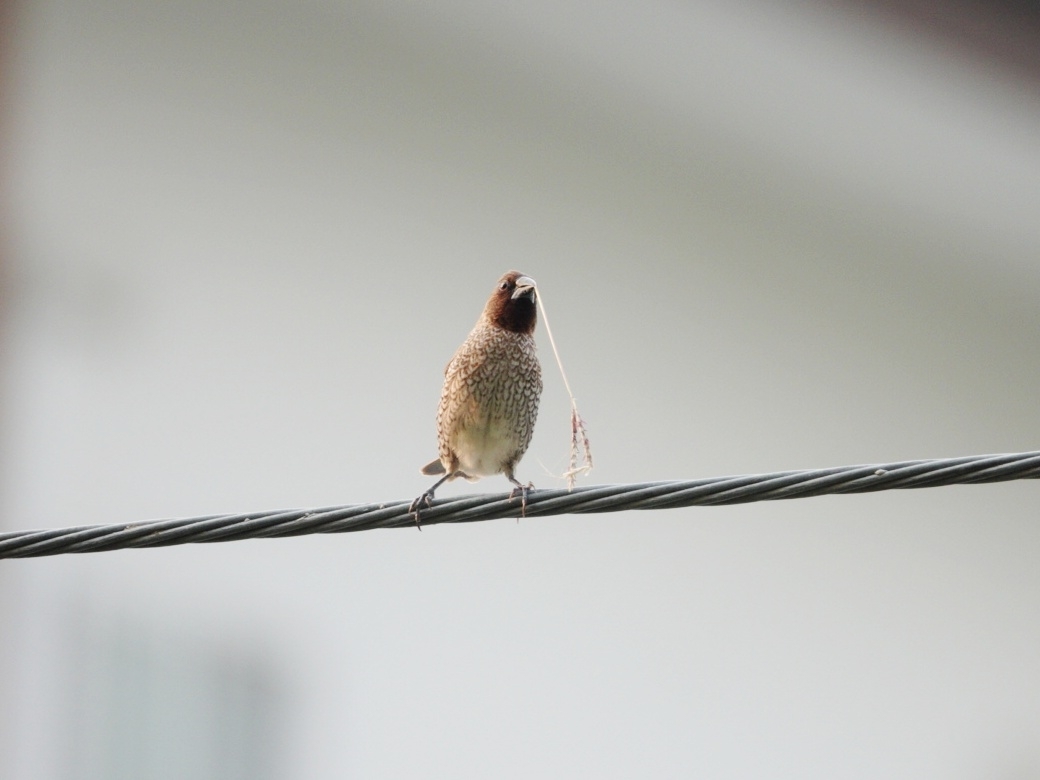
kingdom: Animalia
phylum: Chordata
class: Aves
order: Passeriformes
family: Estrildidae
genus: Lonchura
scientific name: Lonchura punctulata
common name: Scaly-breasted munia
